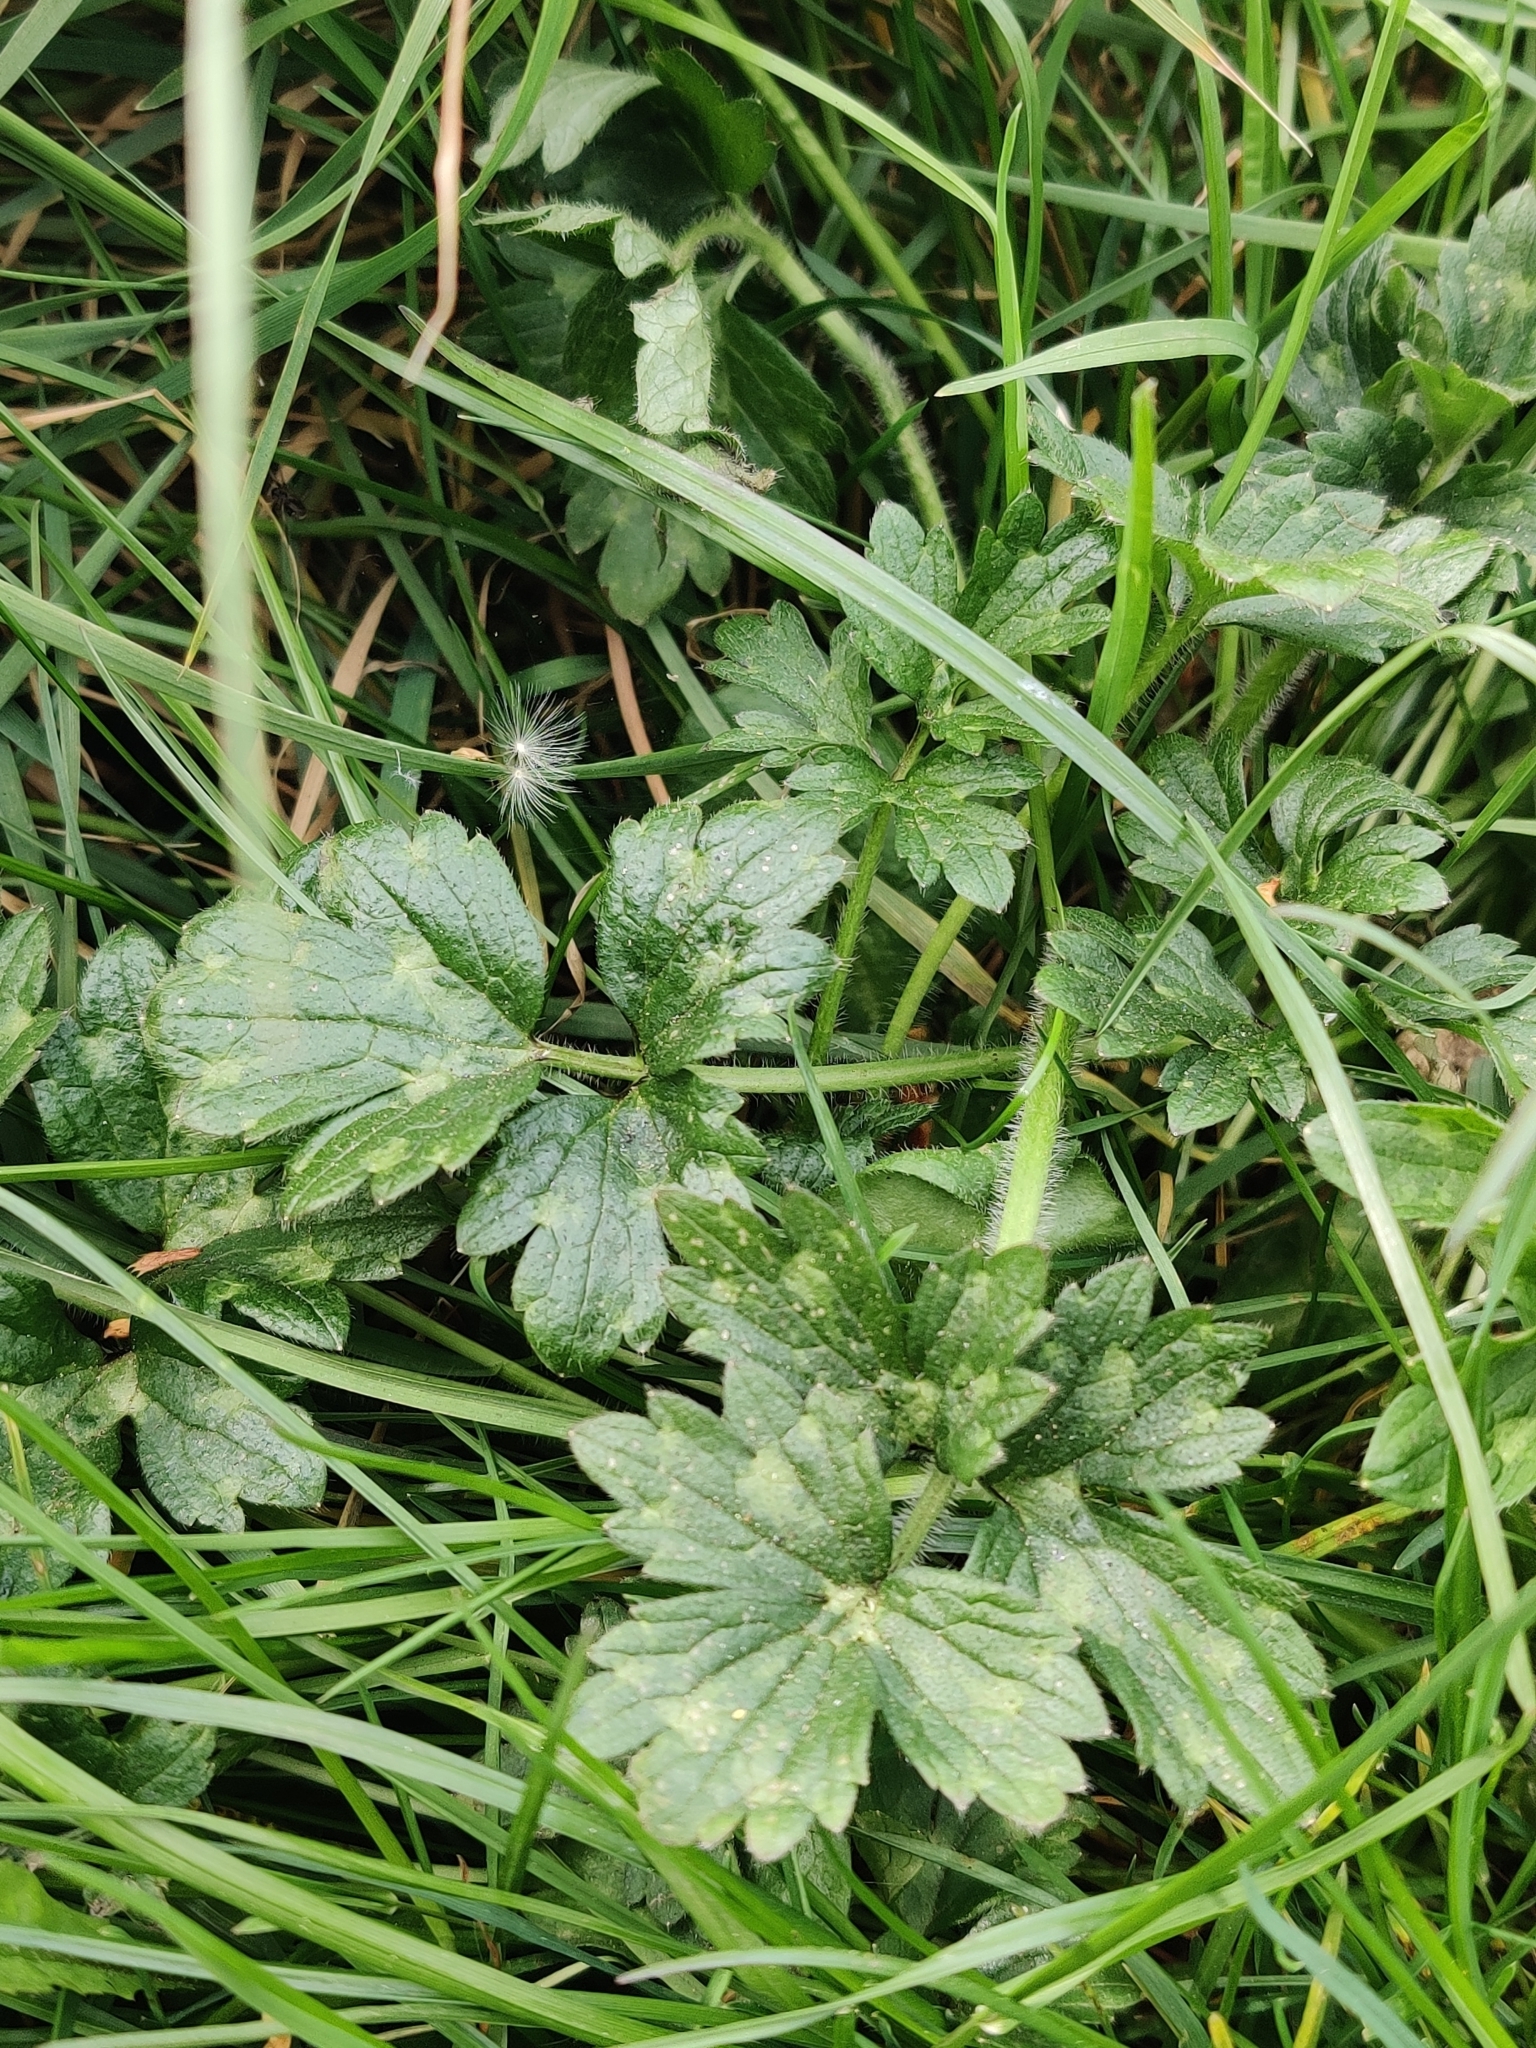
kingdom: Plantae
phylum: Tracheophyta
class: Magnoliopsida
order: Ranunculales
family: Ranunculaceae
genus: Ranunculus
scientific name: Ranunculus repens
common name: Creeping buttercup
